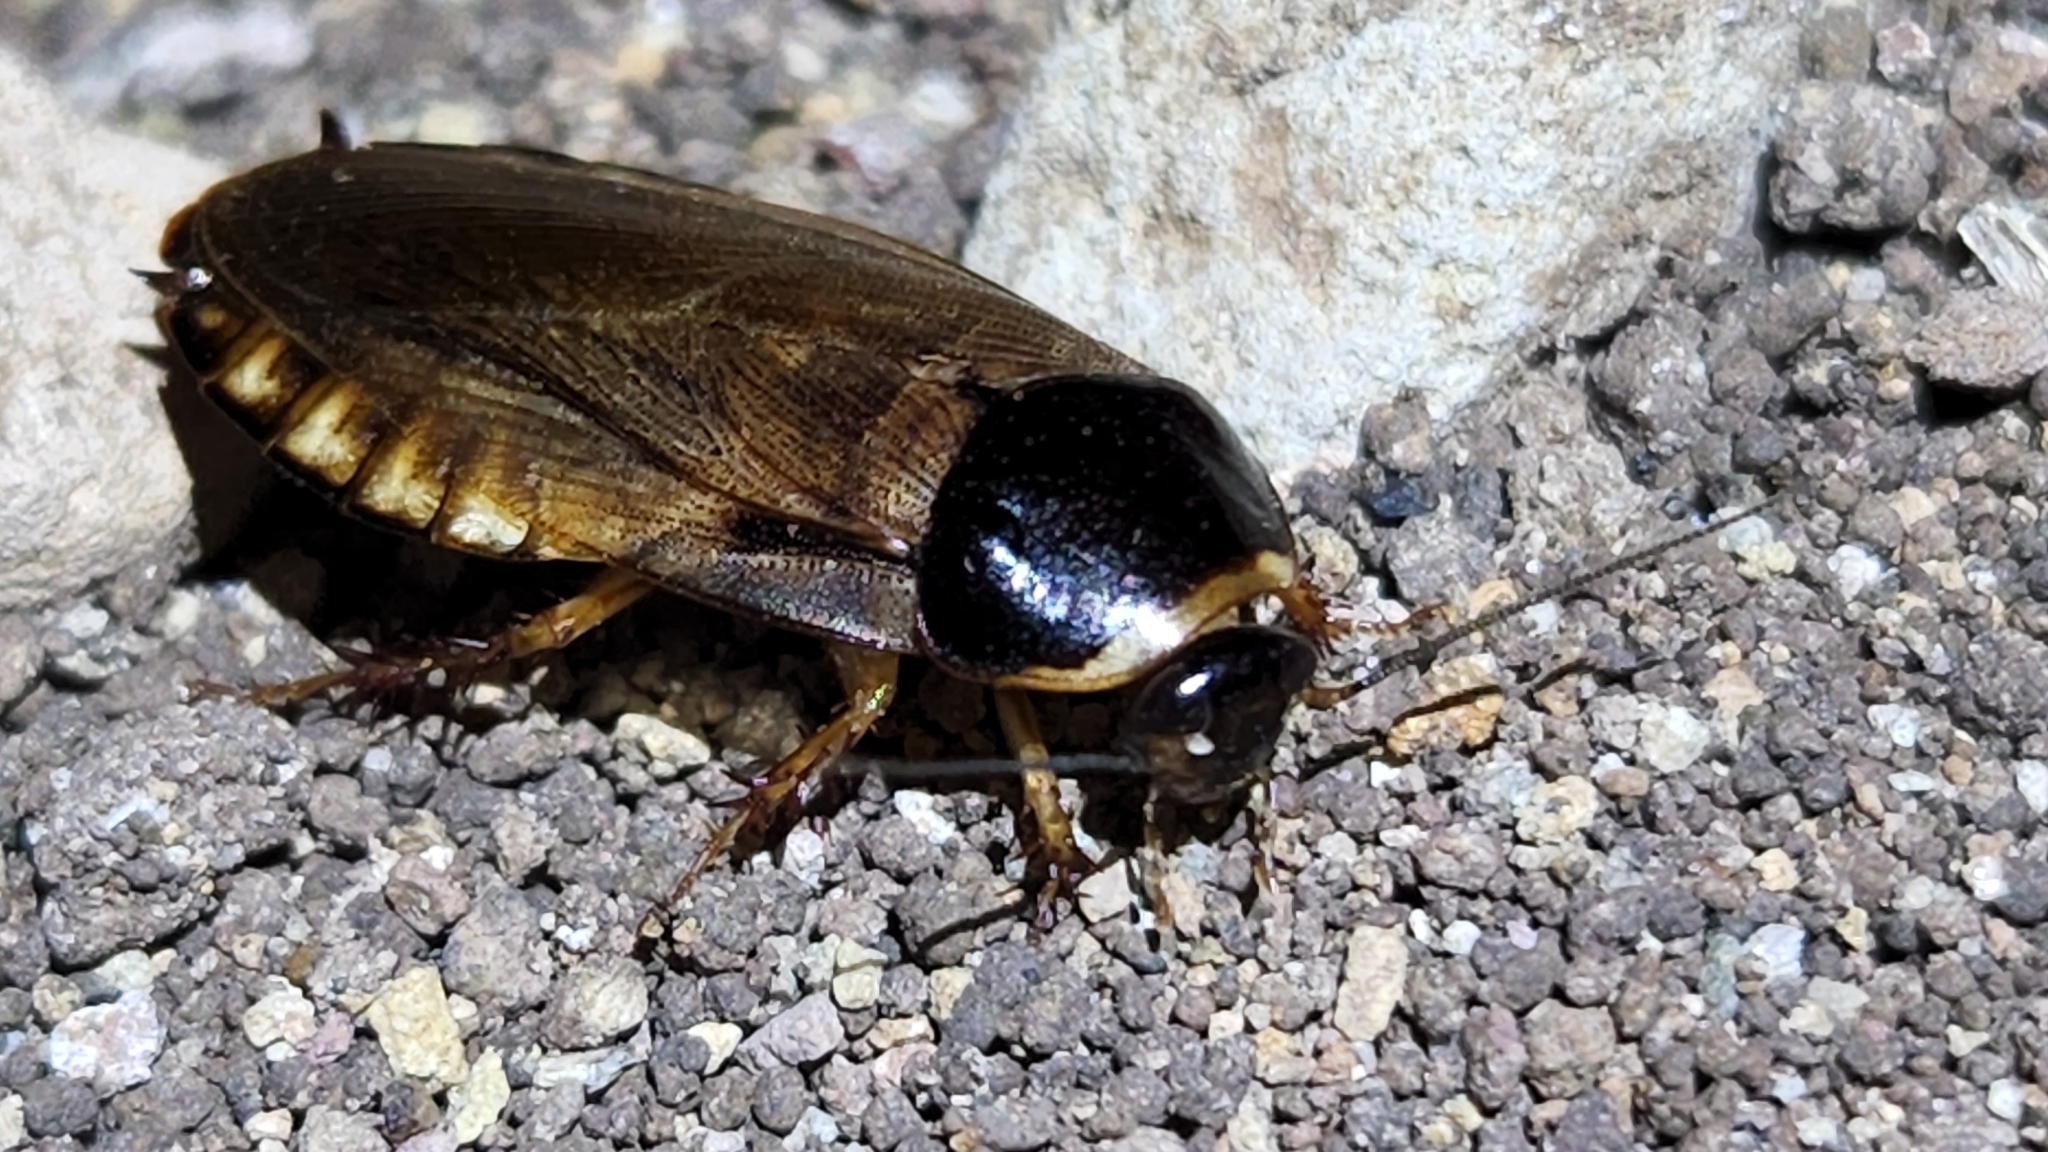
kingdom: Animalia
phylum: Arthropoda
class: Insecta
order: Blattodea
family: Blaberidae
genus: Pycnoscelus
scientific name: Pycnoscelus surinamensis
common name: Surinam cockroach
